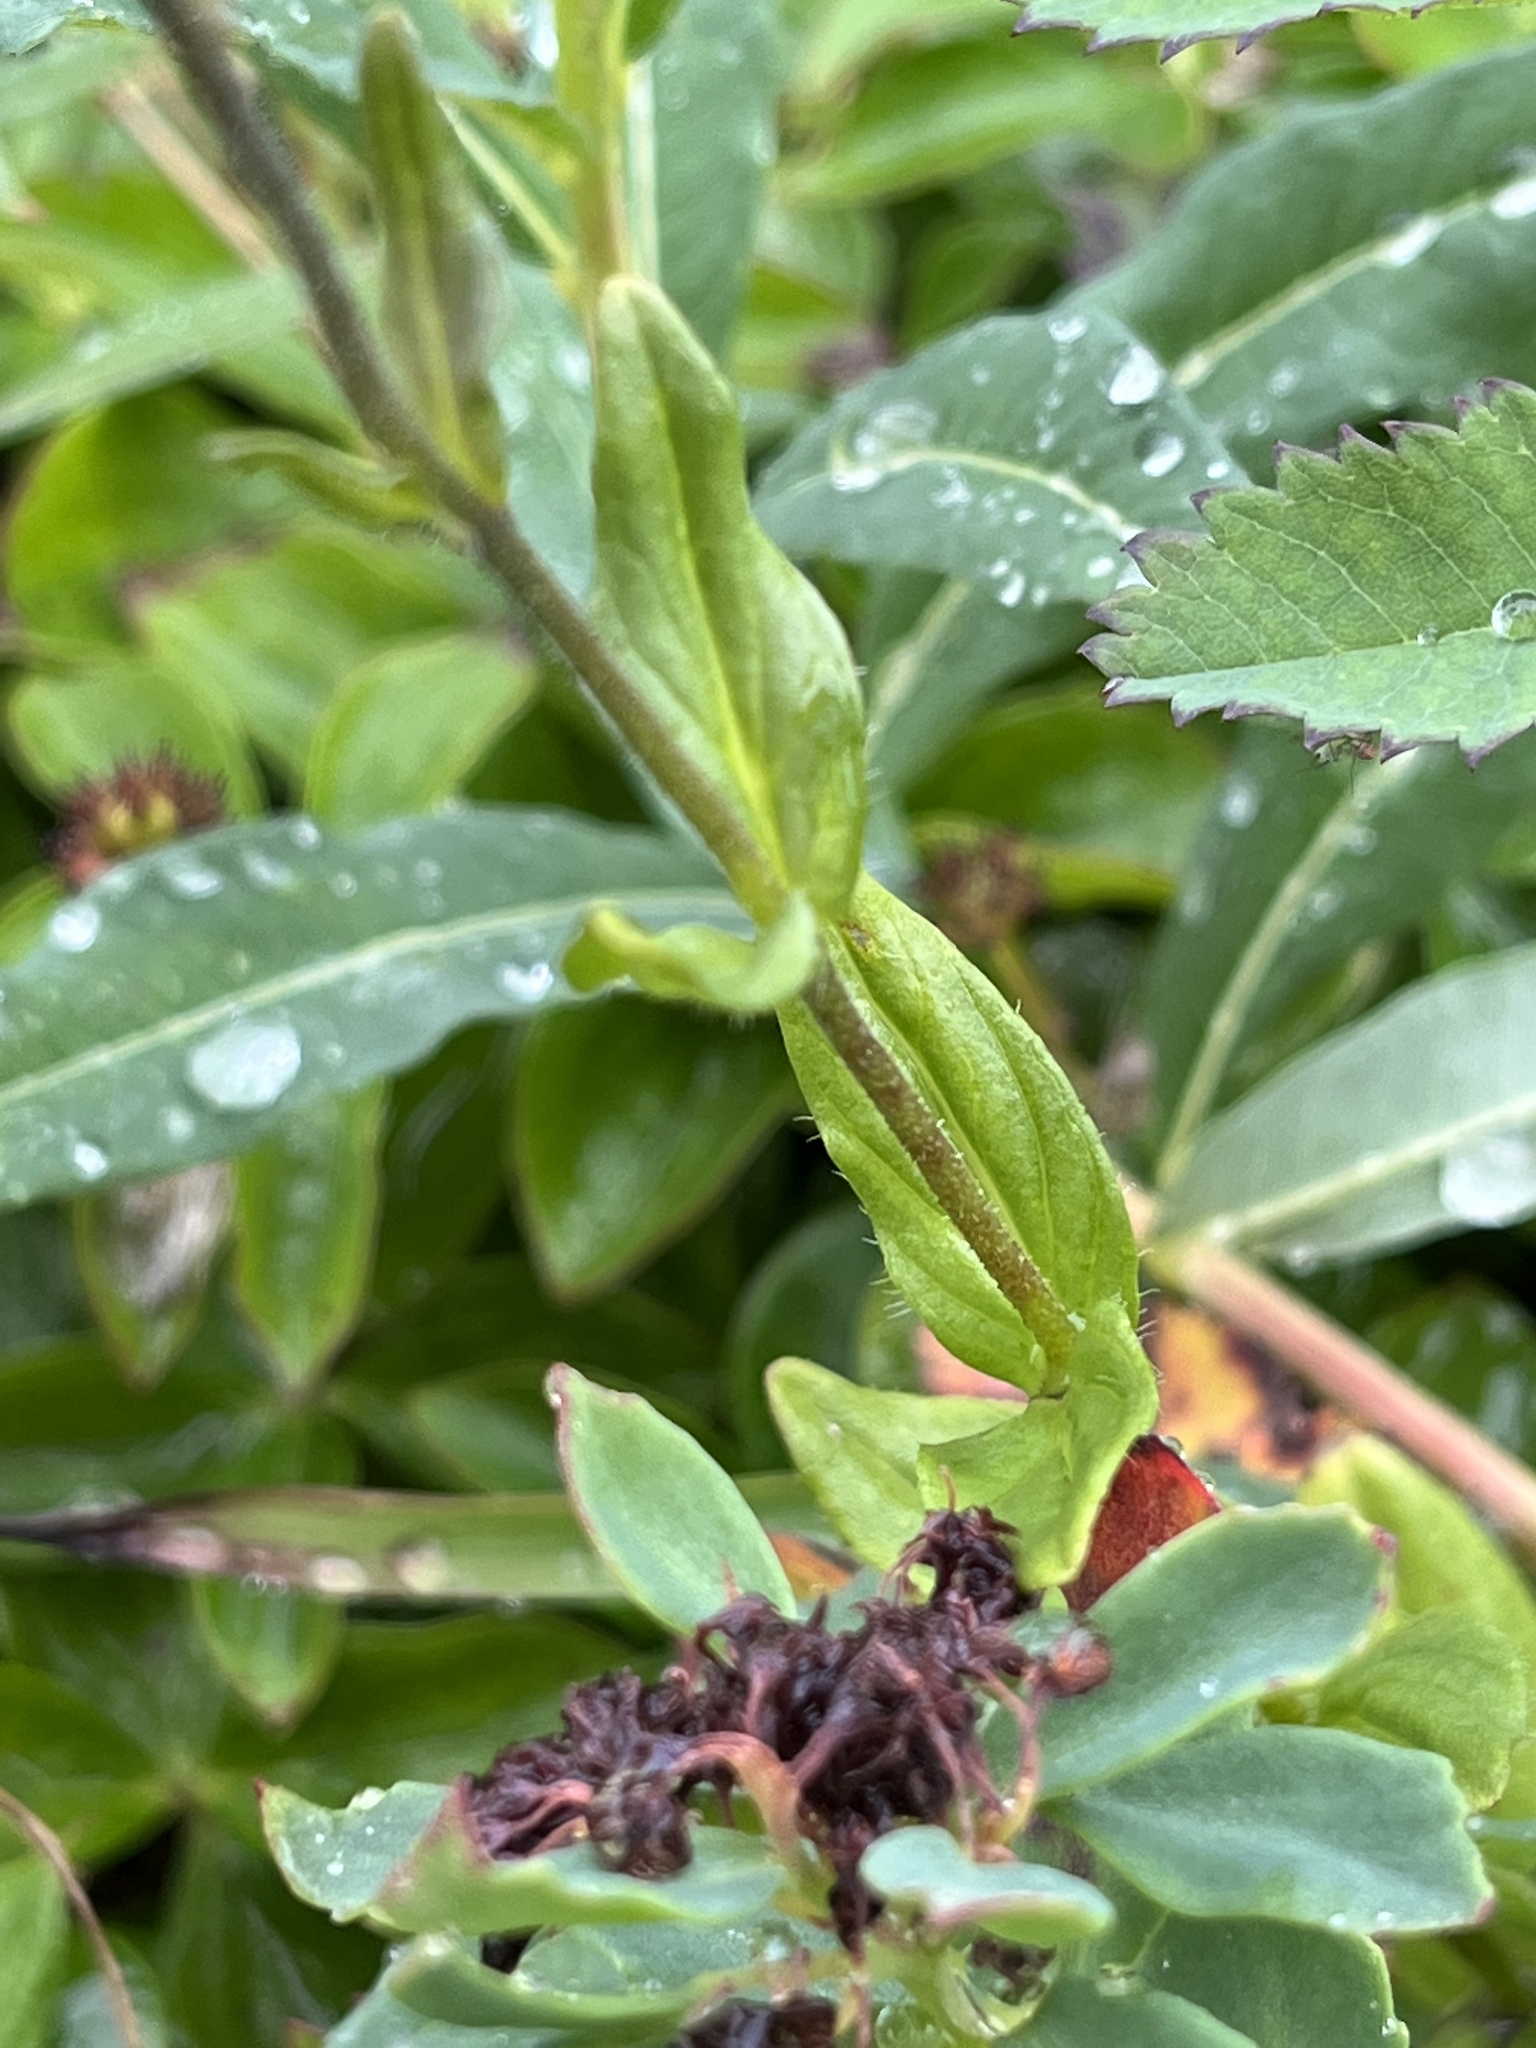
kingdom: Plantae
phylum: Tracheophyta
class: Magnoliopsida
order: Lamiales
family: Plantaginaceae
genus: Veronica
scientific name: Veronica wormskjoldii
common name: American alpine speedwell
